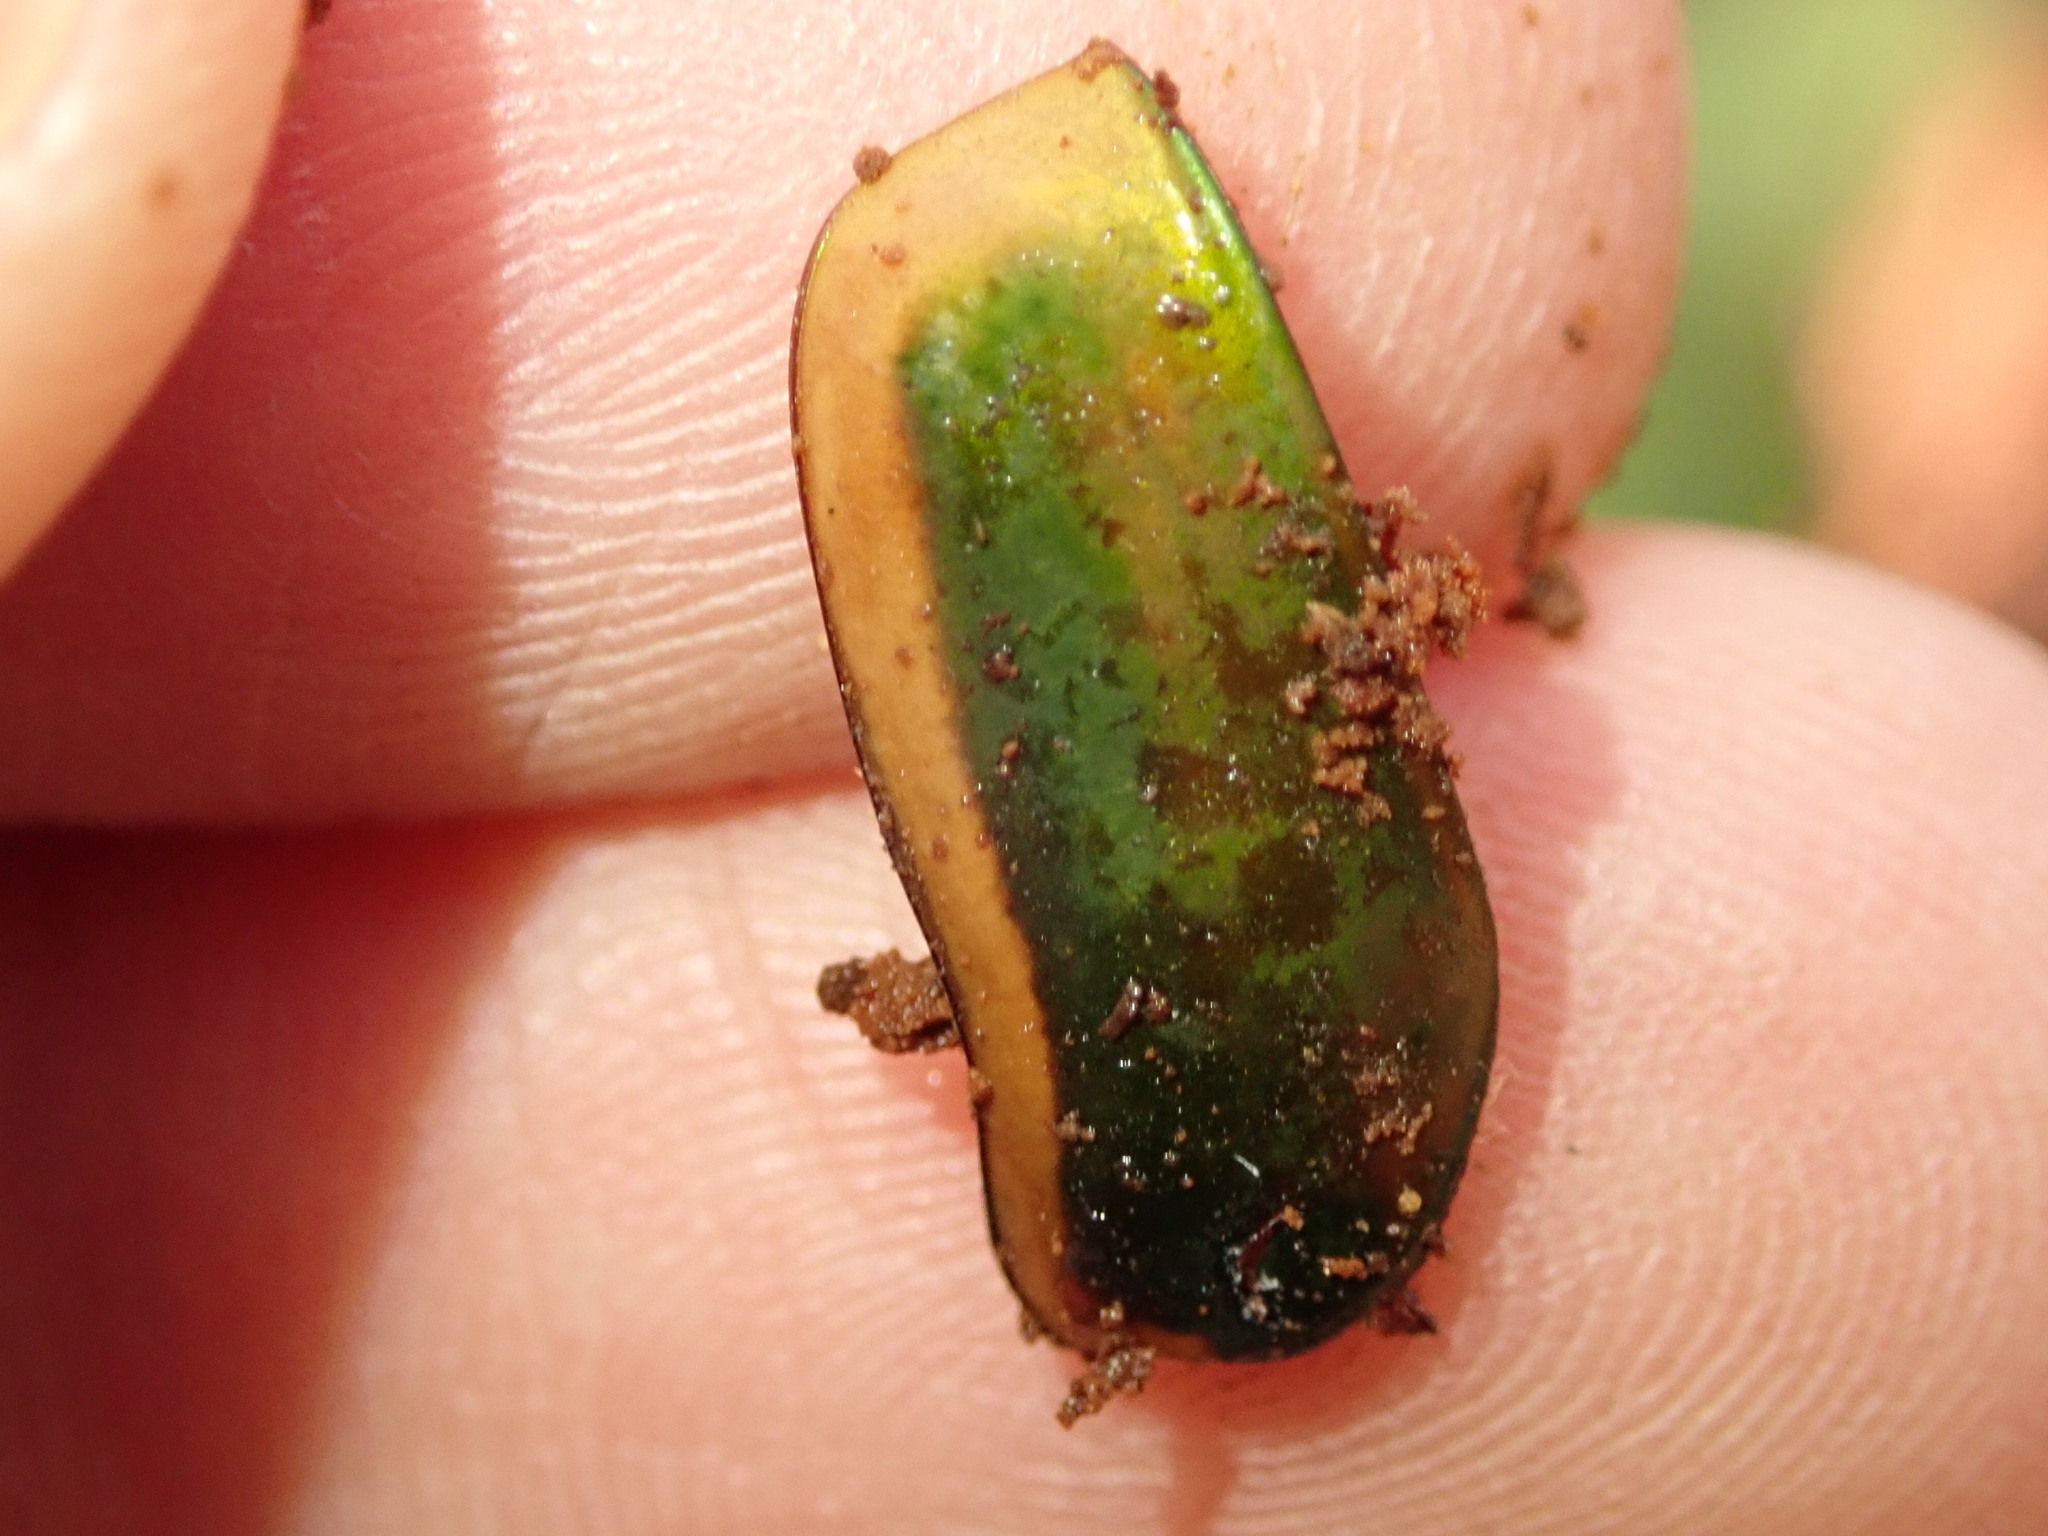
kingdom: Animalia
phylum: Arthropoda
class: Insecta
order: Coleoptera
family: Scarabaeidae
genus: Cotinis
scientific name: Cotinis nitida
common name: Common green june beetle
